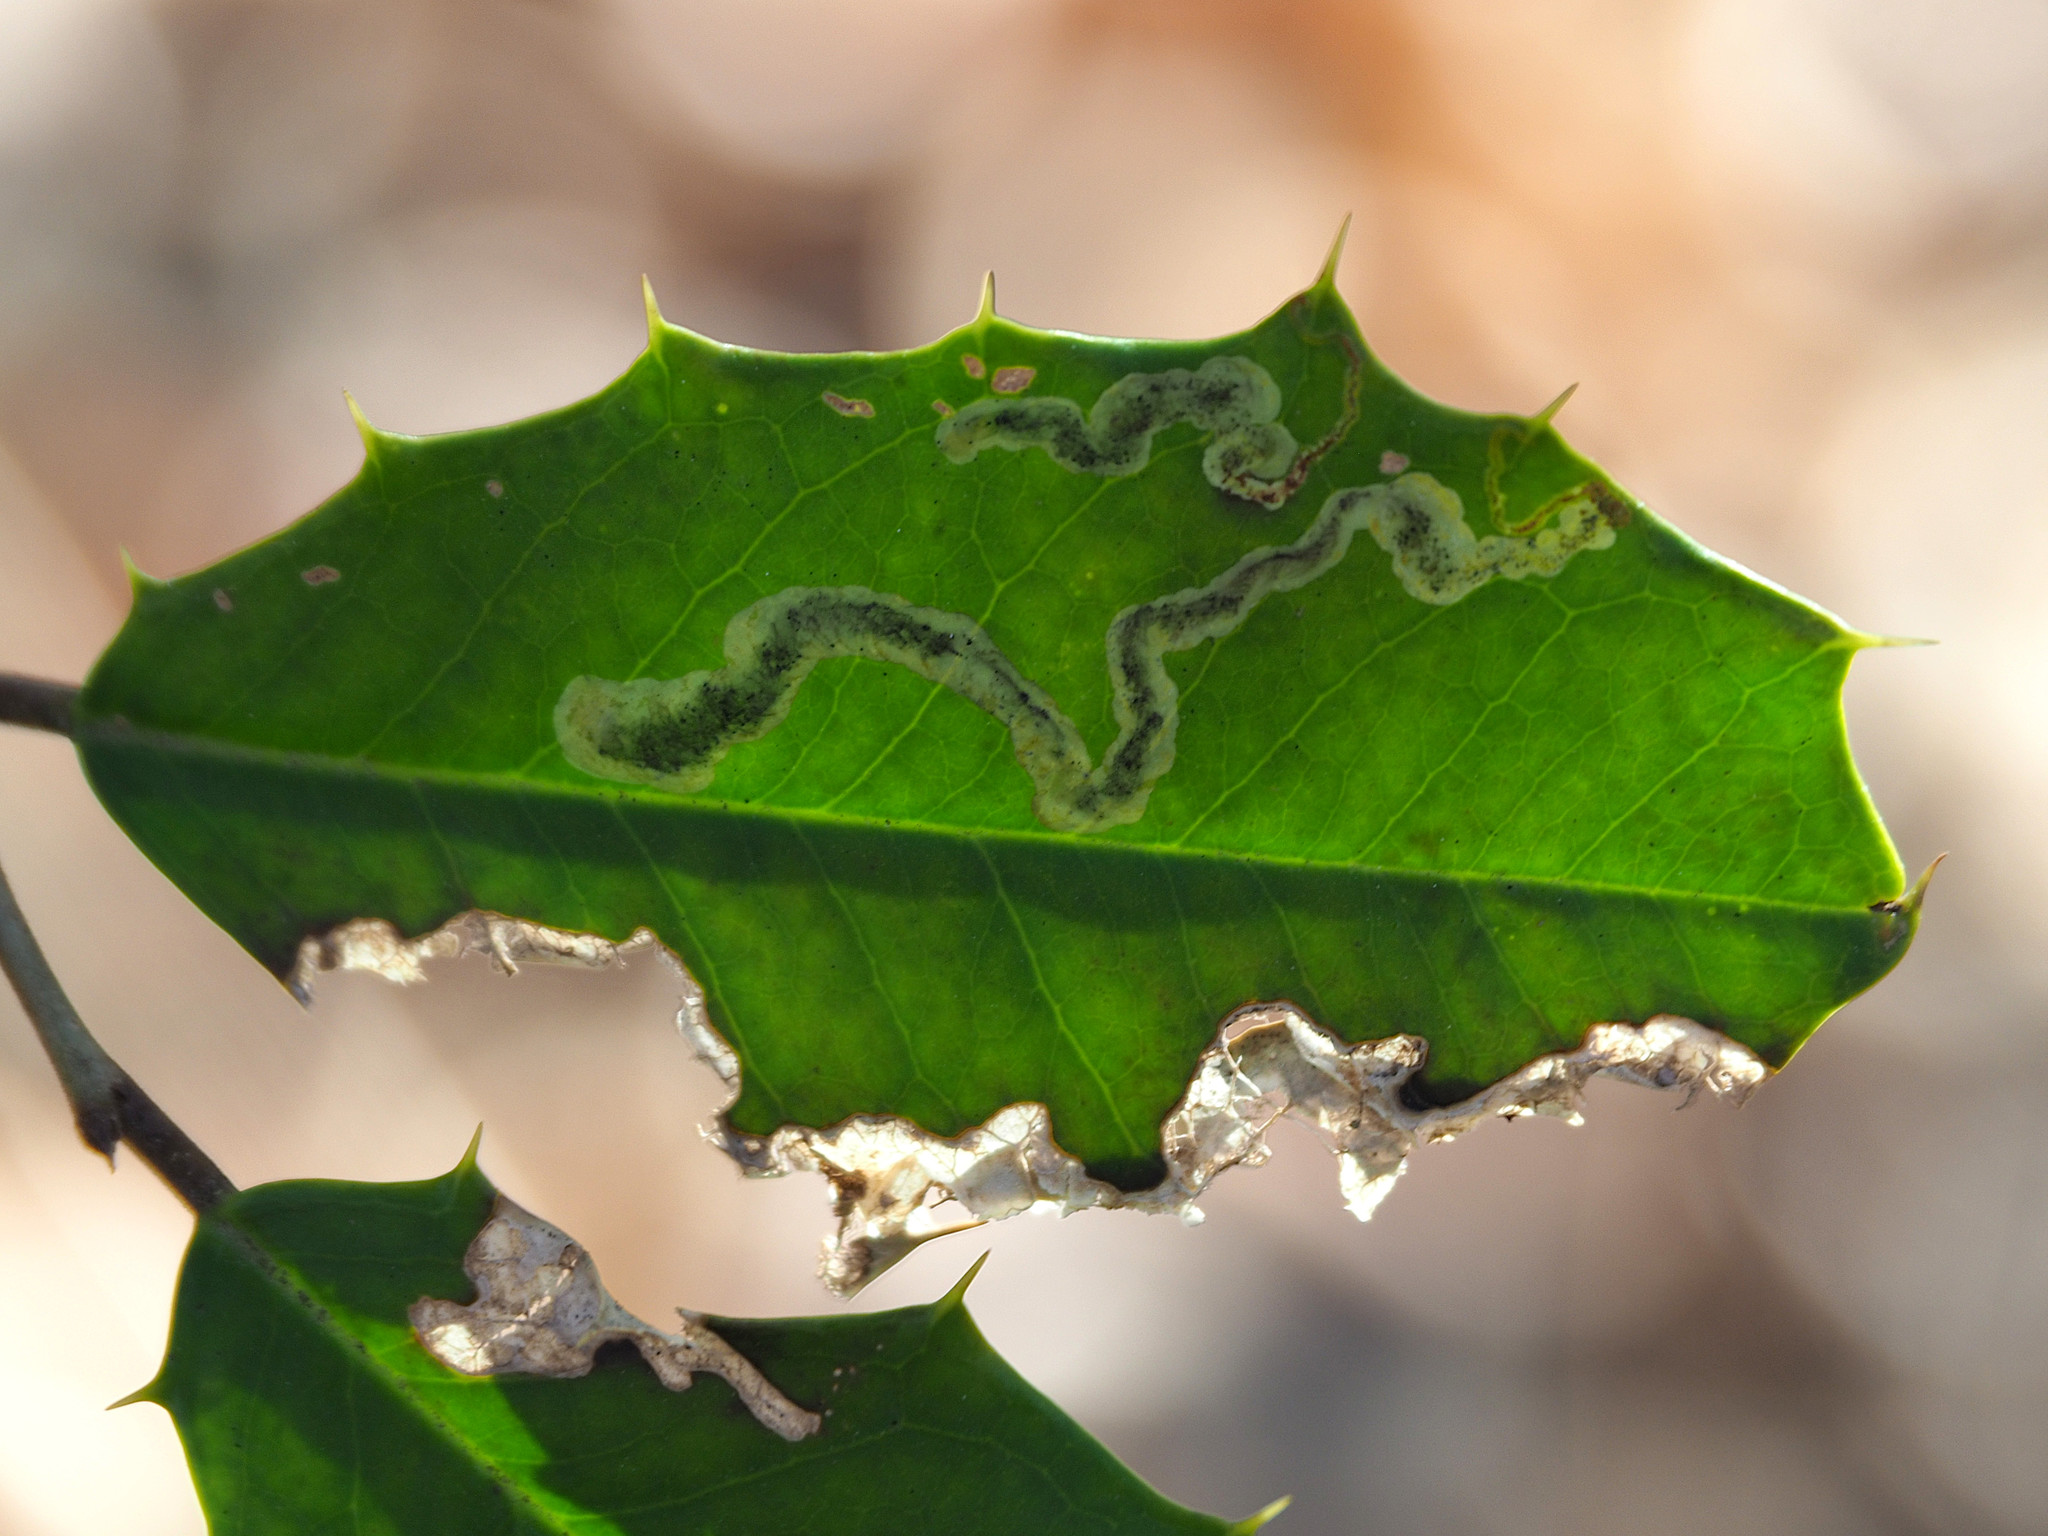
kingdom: Animalia
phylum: Arthropoda
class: Insecta
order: Diptera
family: Agromyzidae
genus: Phytomyza
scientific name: Phytomyza ilicicola
